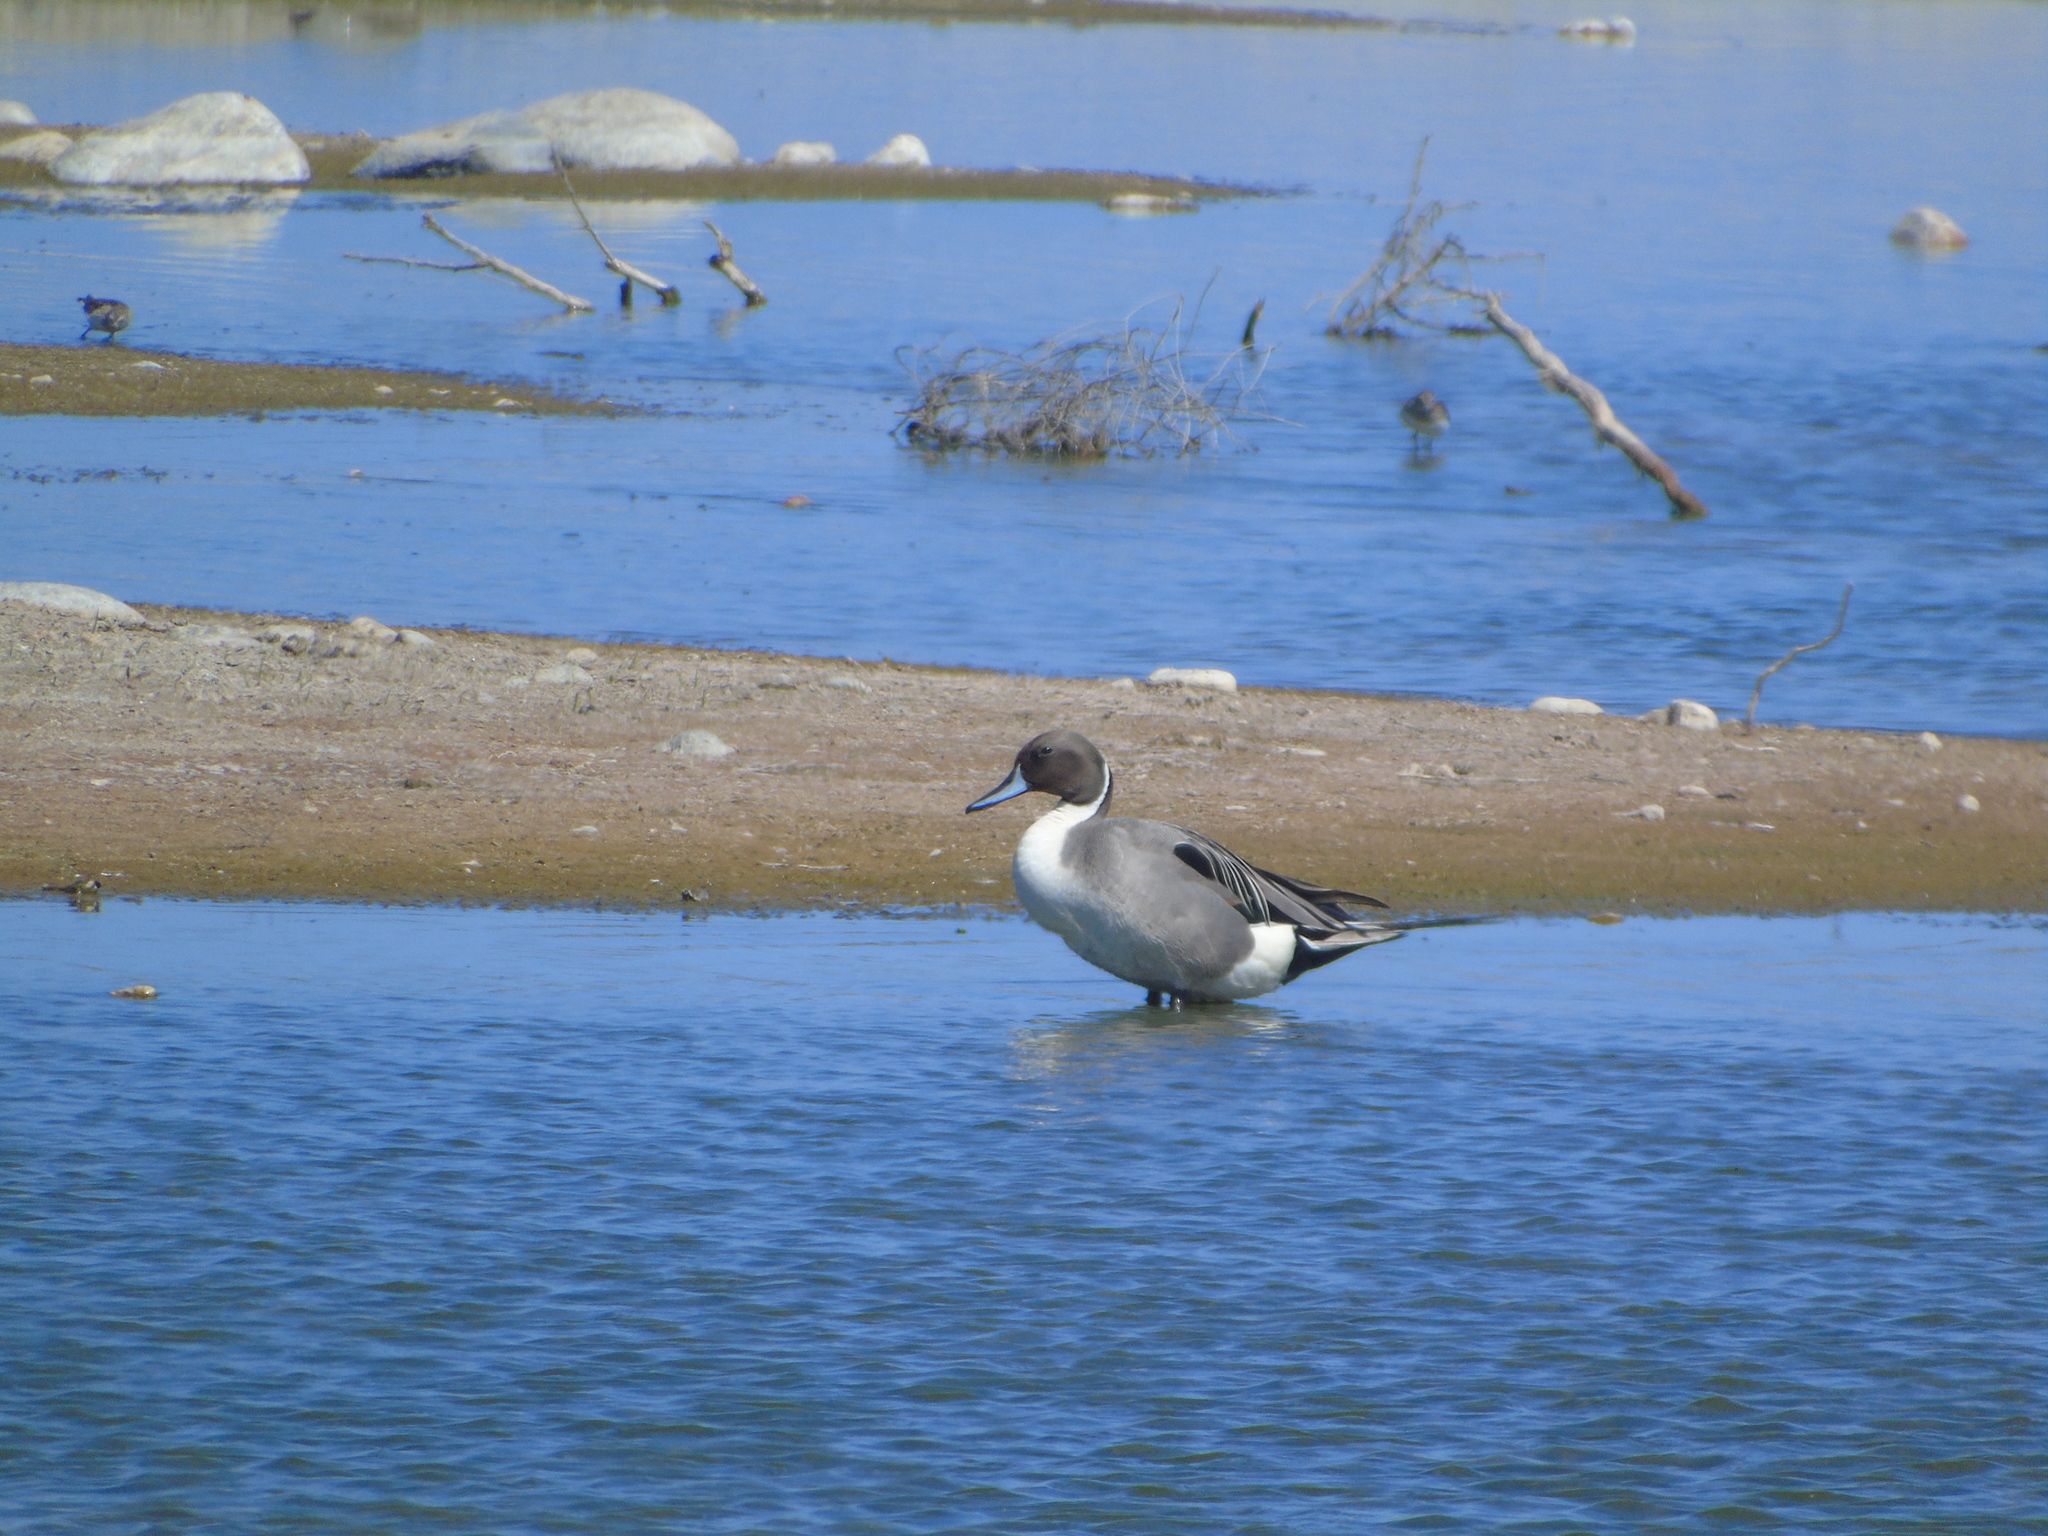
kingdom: Animalia
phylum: Chordata
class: Aves
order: Anseriformes
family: Anatidae
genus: Anas
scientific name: Anas acuta
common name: Northern pintail
